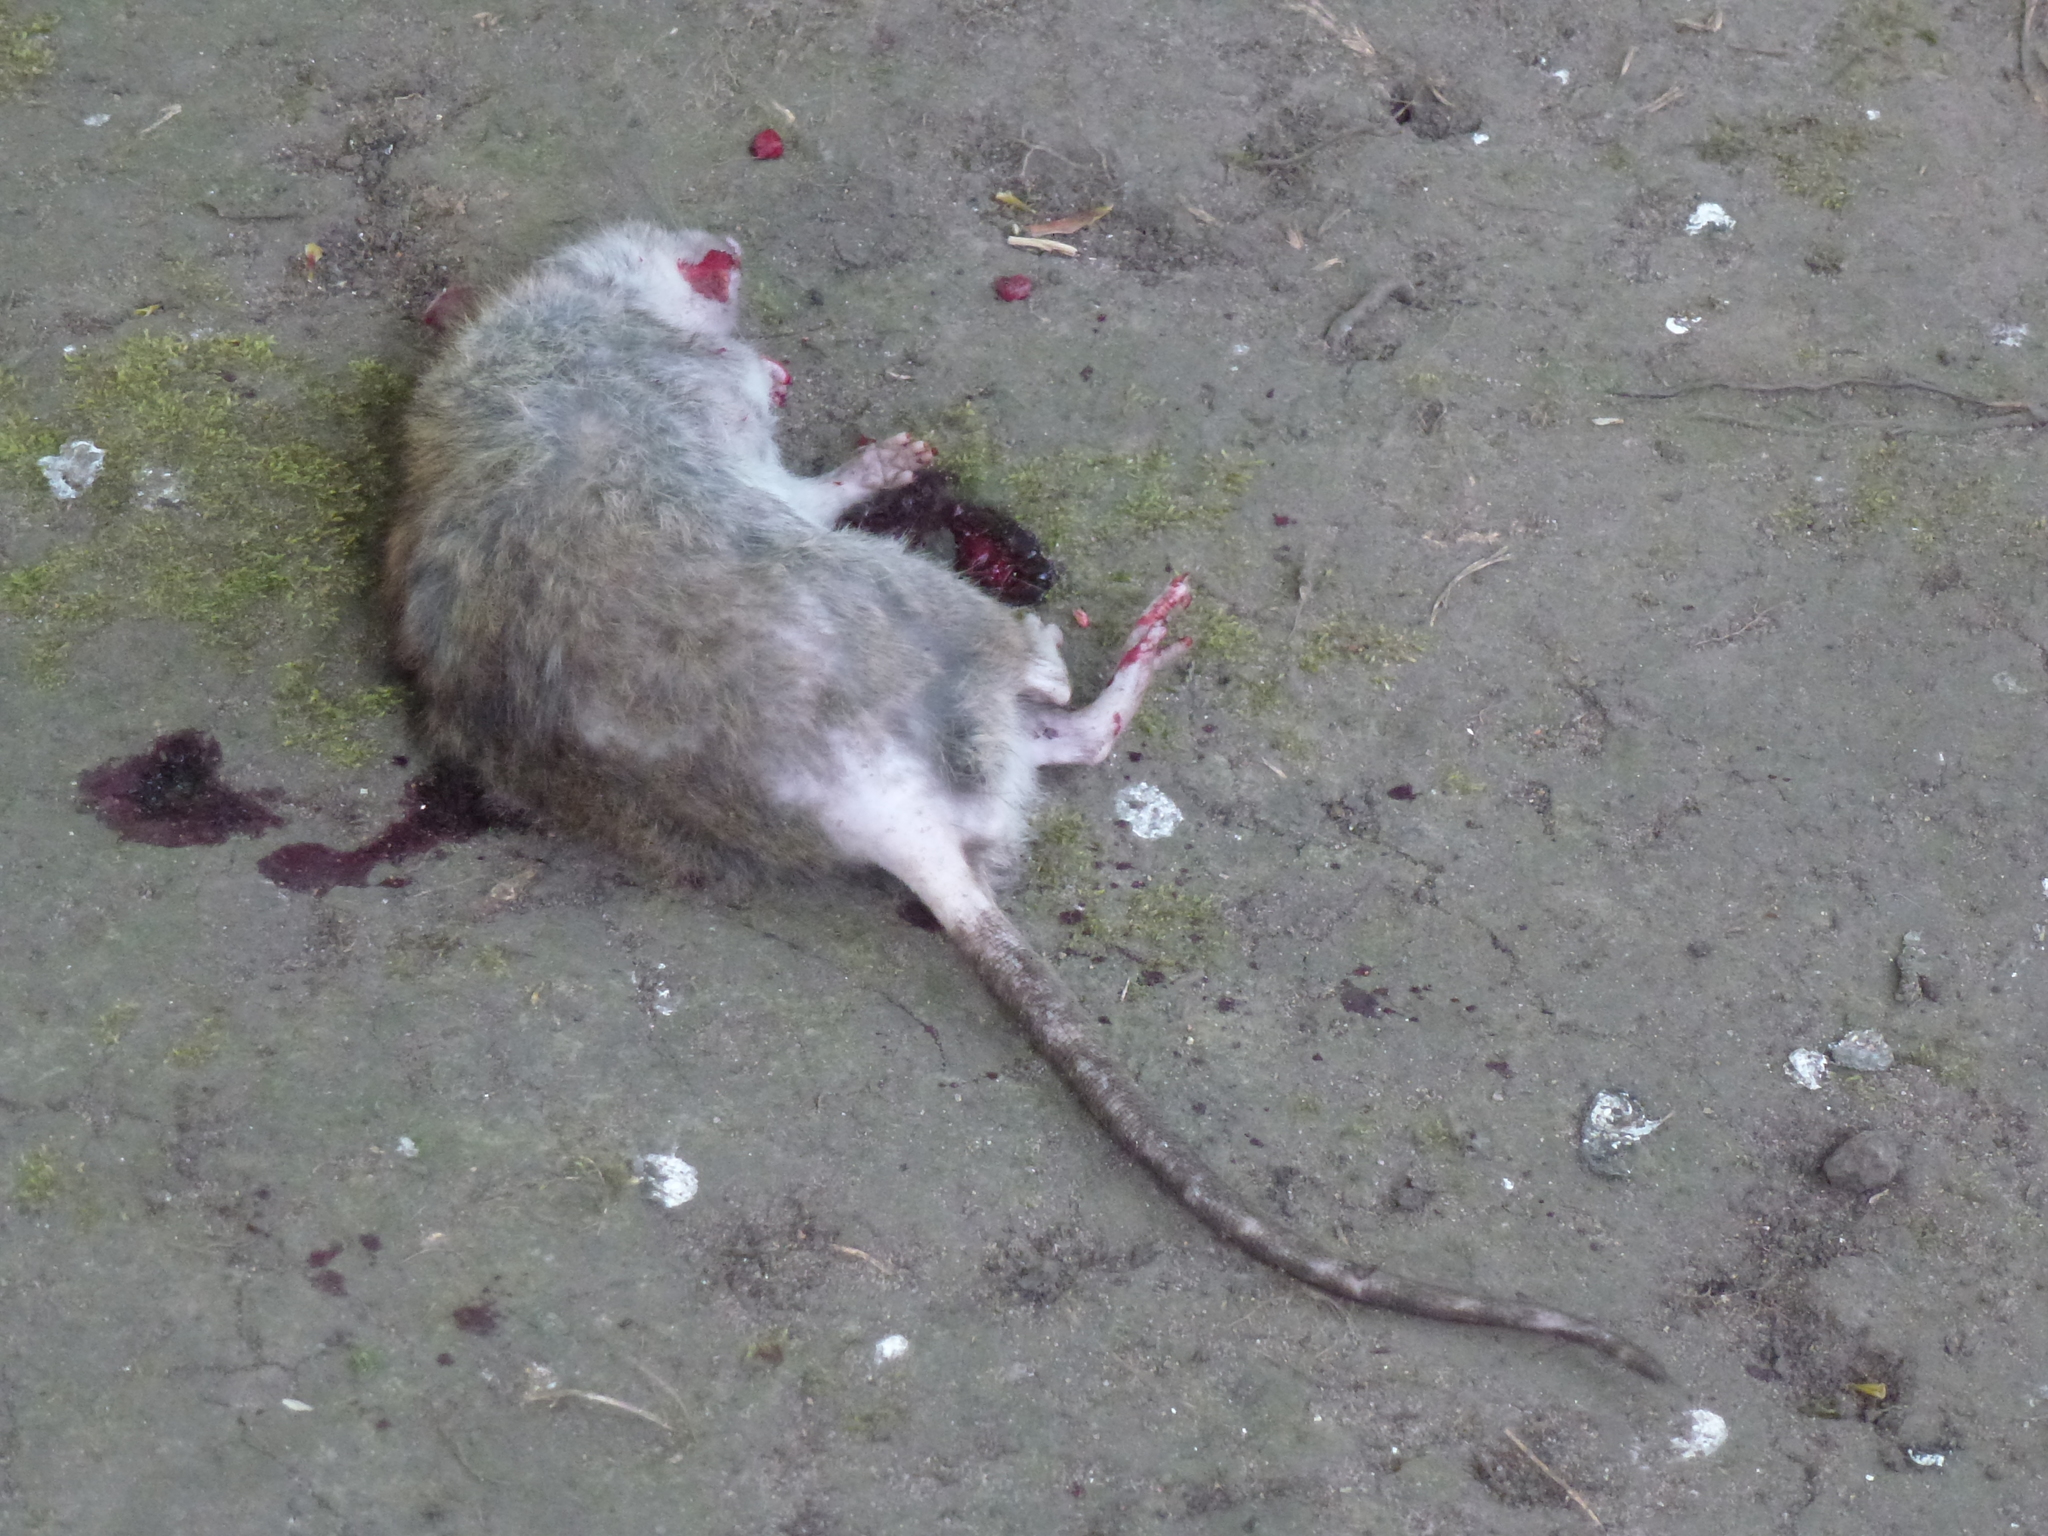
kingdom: Animalia
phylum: Chordata
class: Mammalia
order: Rodentia
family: Muridae
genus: Rattus
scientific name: Rattus norvegicus
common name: Brown rat
